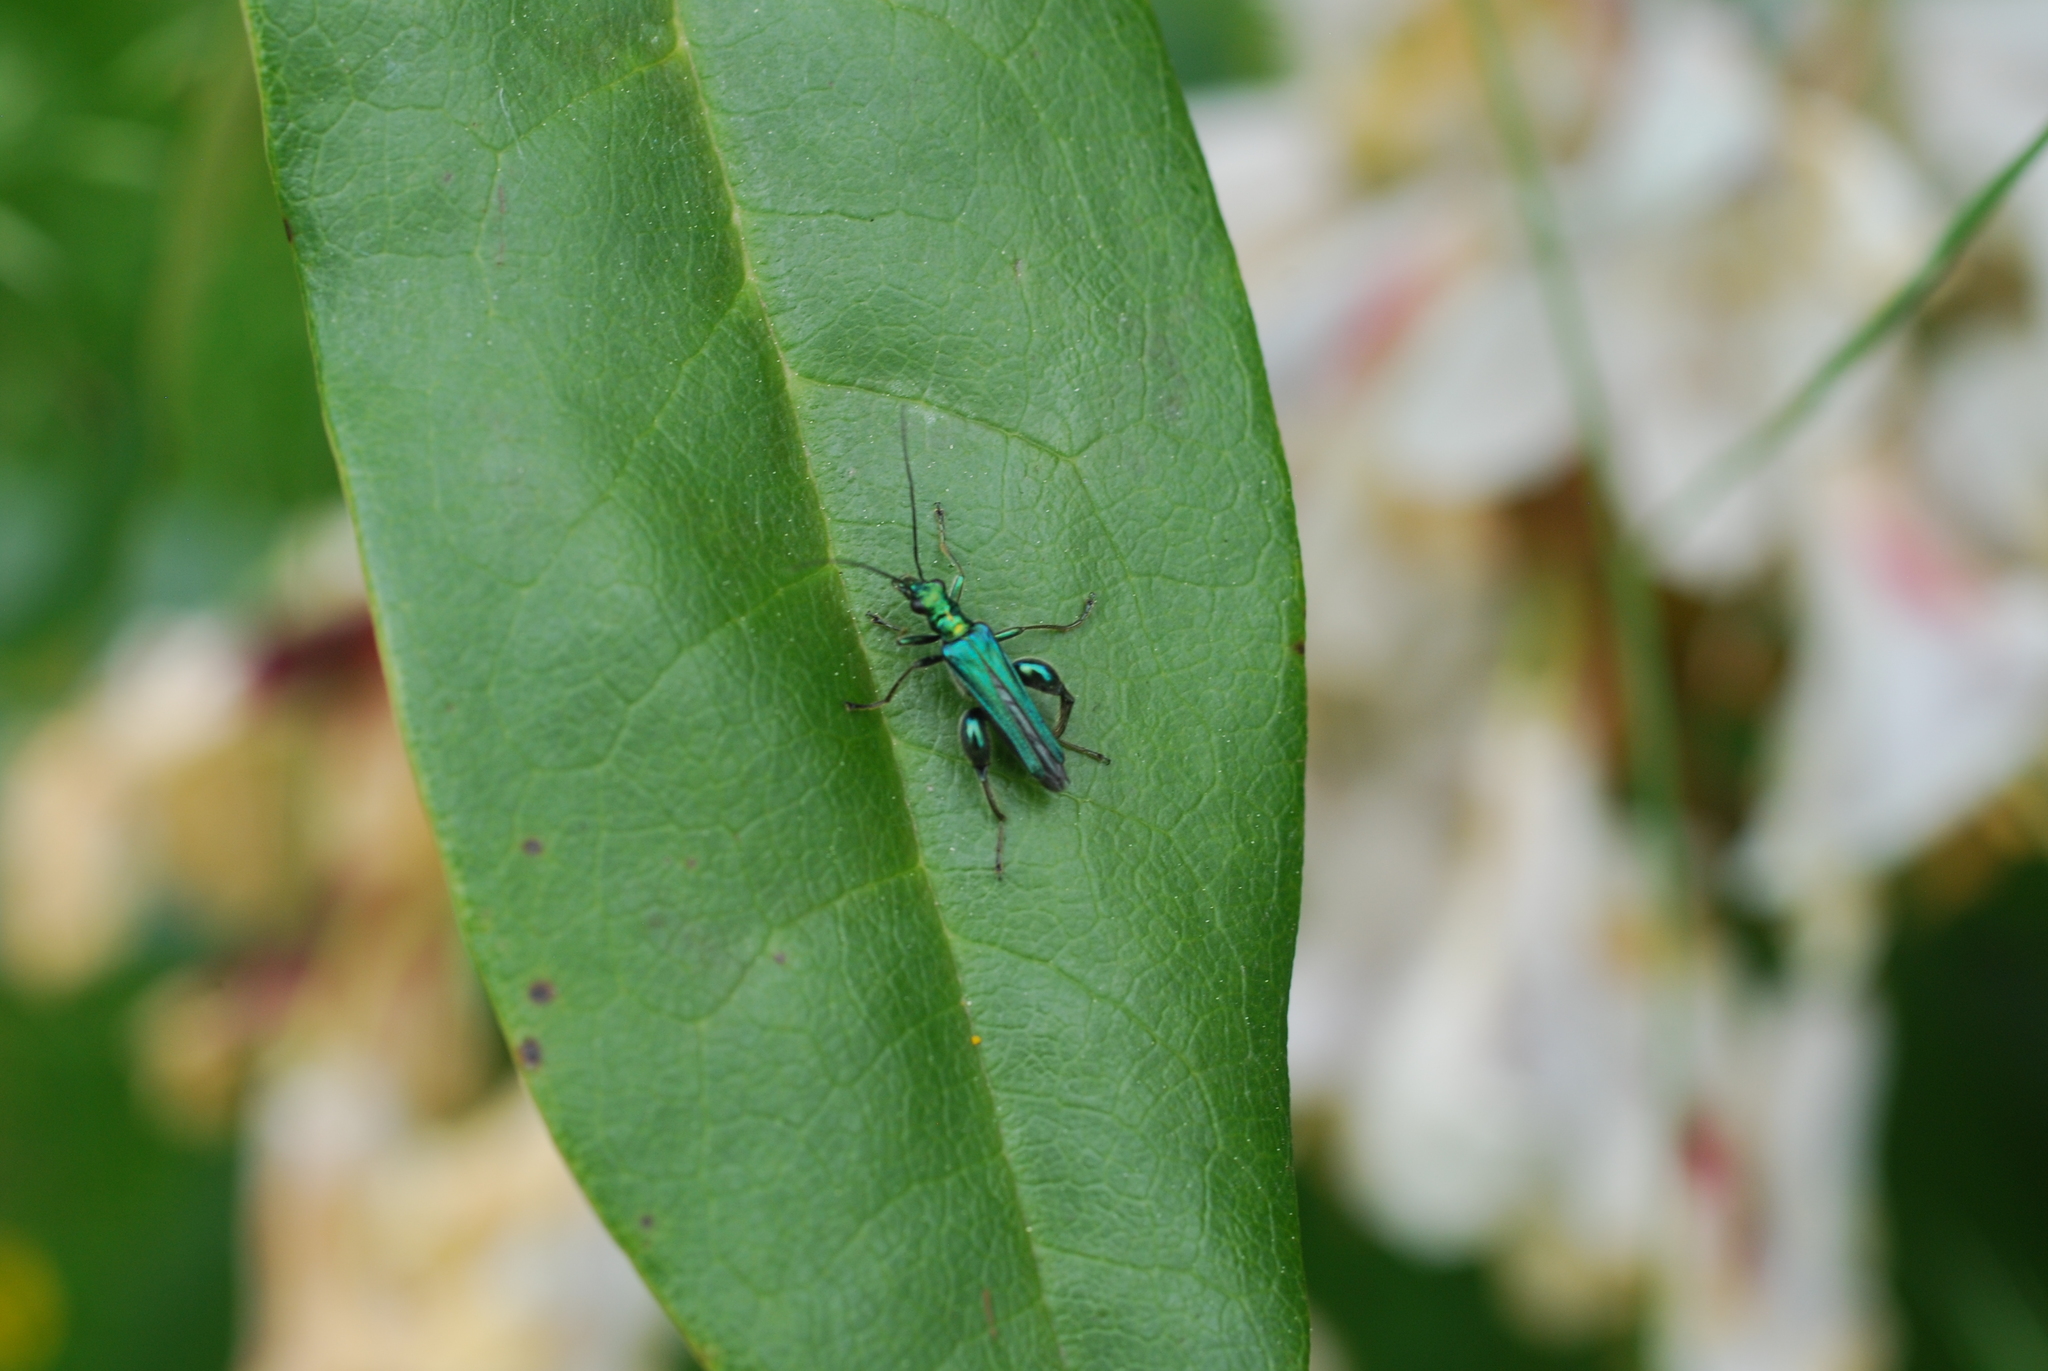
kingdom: Animalia
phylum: Arthropoda
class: Insecta
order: Coleoptera
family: Oedemeridae
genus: Oedemera
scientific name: Oedemera nobilis
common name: Swollen-thighed beetle
